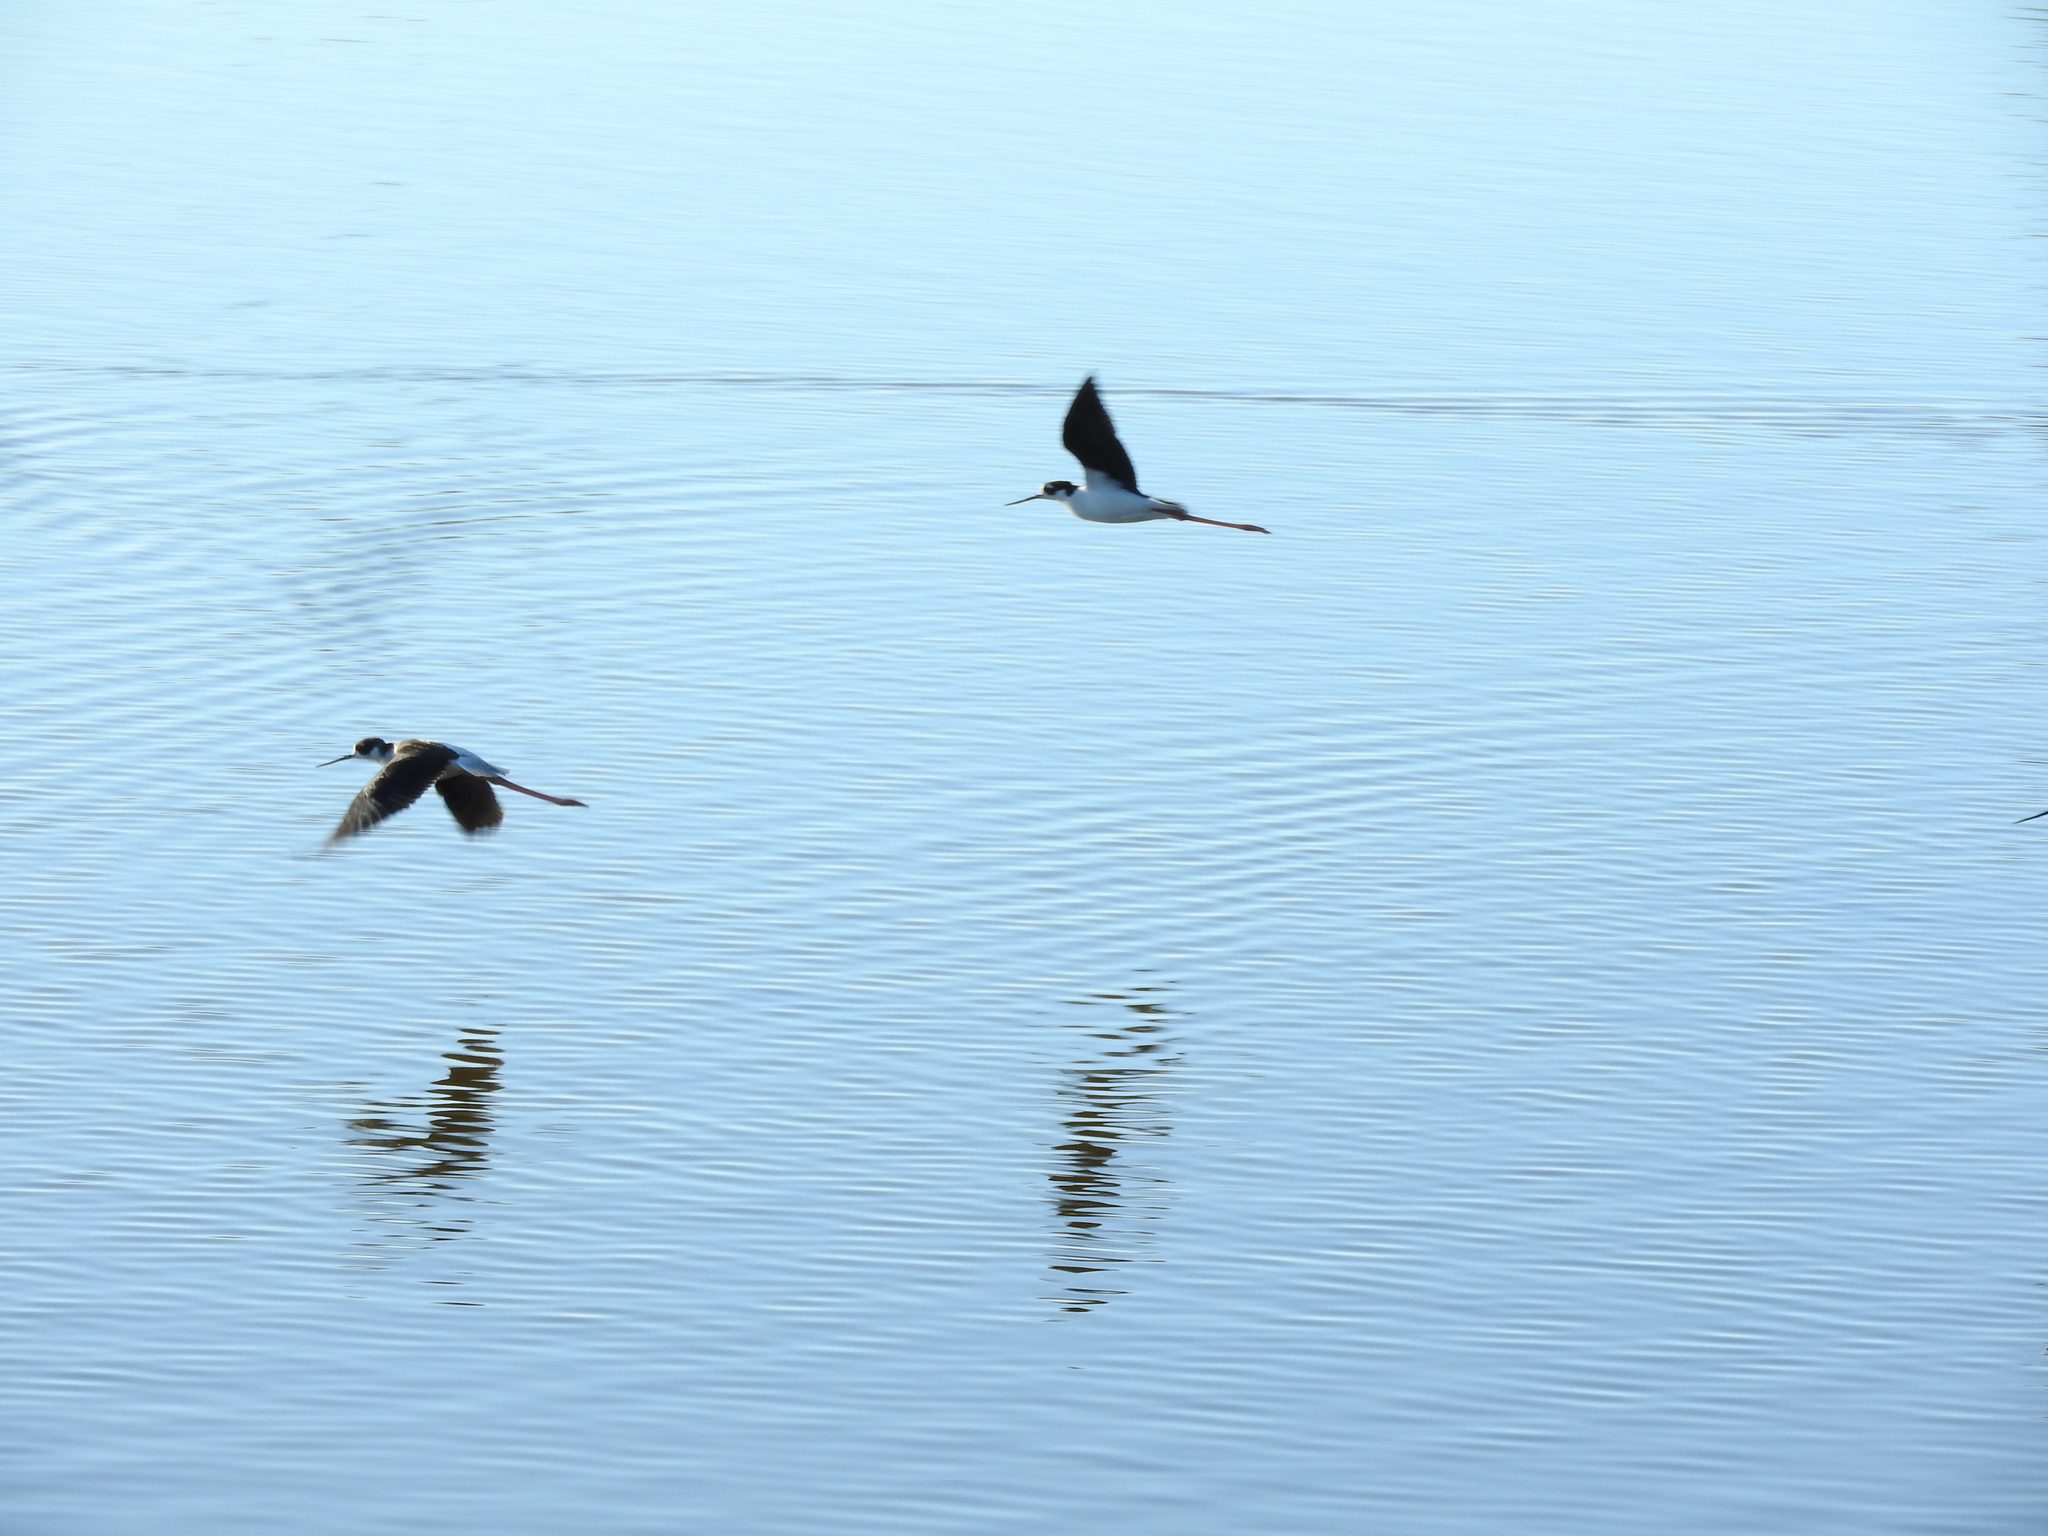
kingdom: Animalia
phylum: Chordata
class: Aves
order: Charadriiformes
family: Recurvirostridae
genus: Himantopus
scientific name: Himantopus mexicanus
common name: Black-necked stilt
